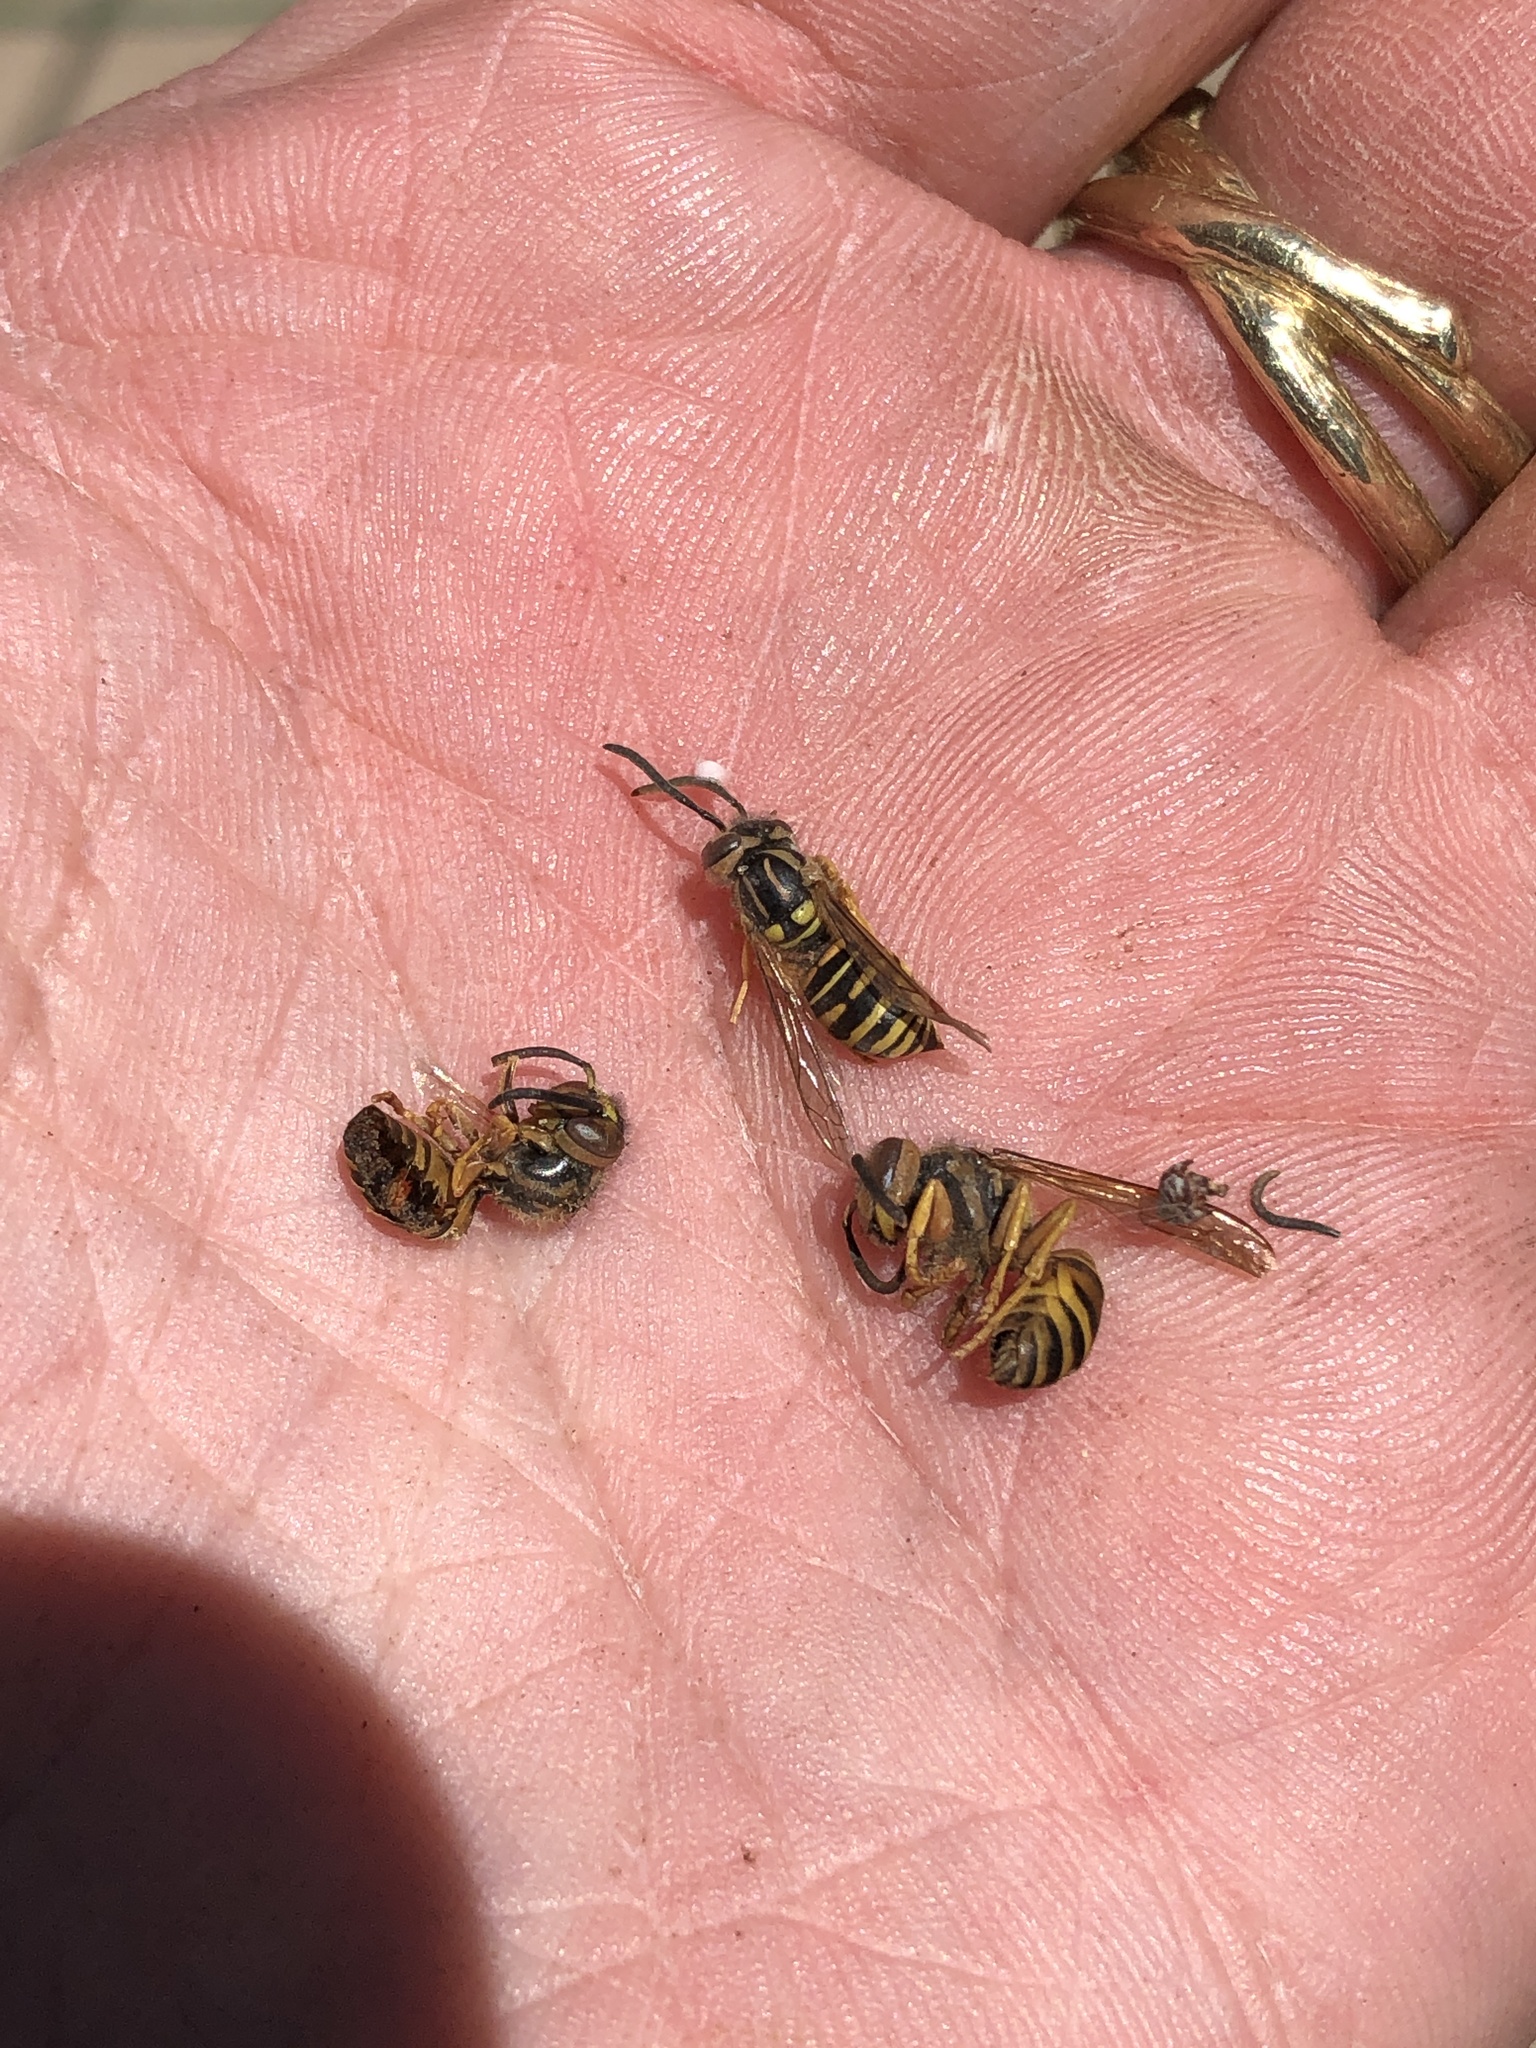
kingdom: Animalia
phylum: Arthropoda
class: Insecta
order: Hymenoptera
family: Vespidae
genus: Vespula
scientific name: Vespula squamosa
